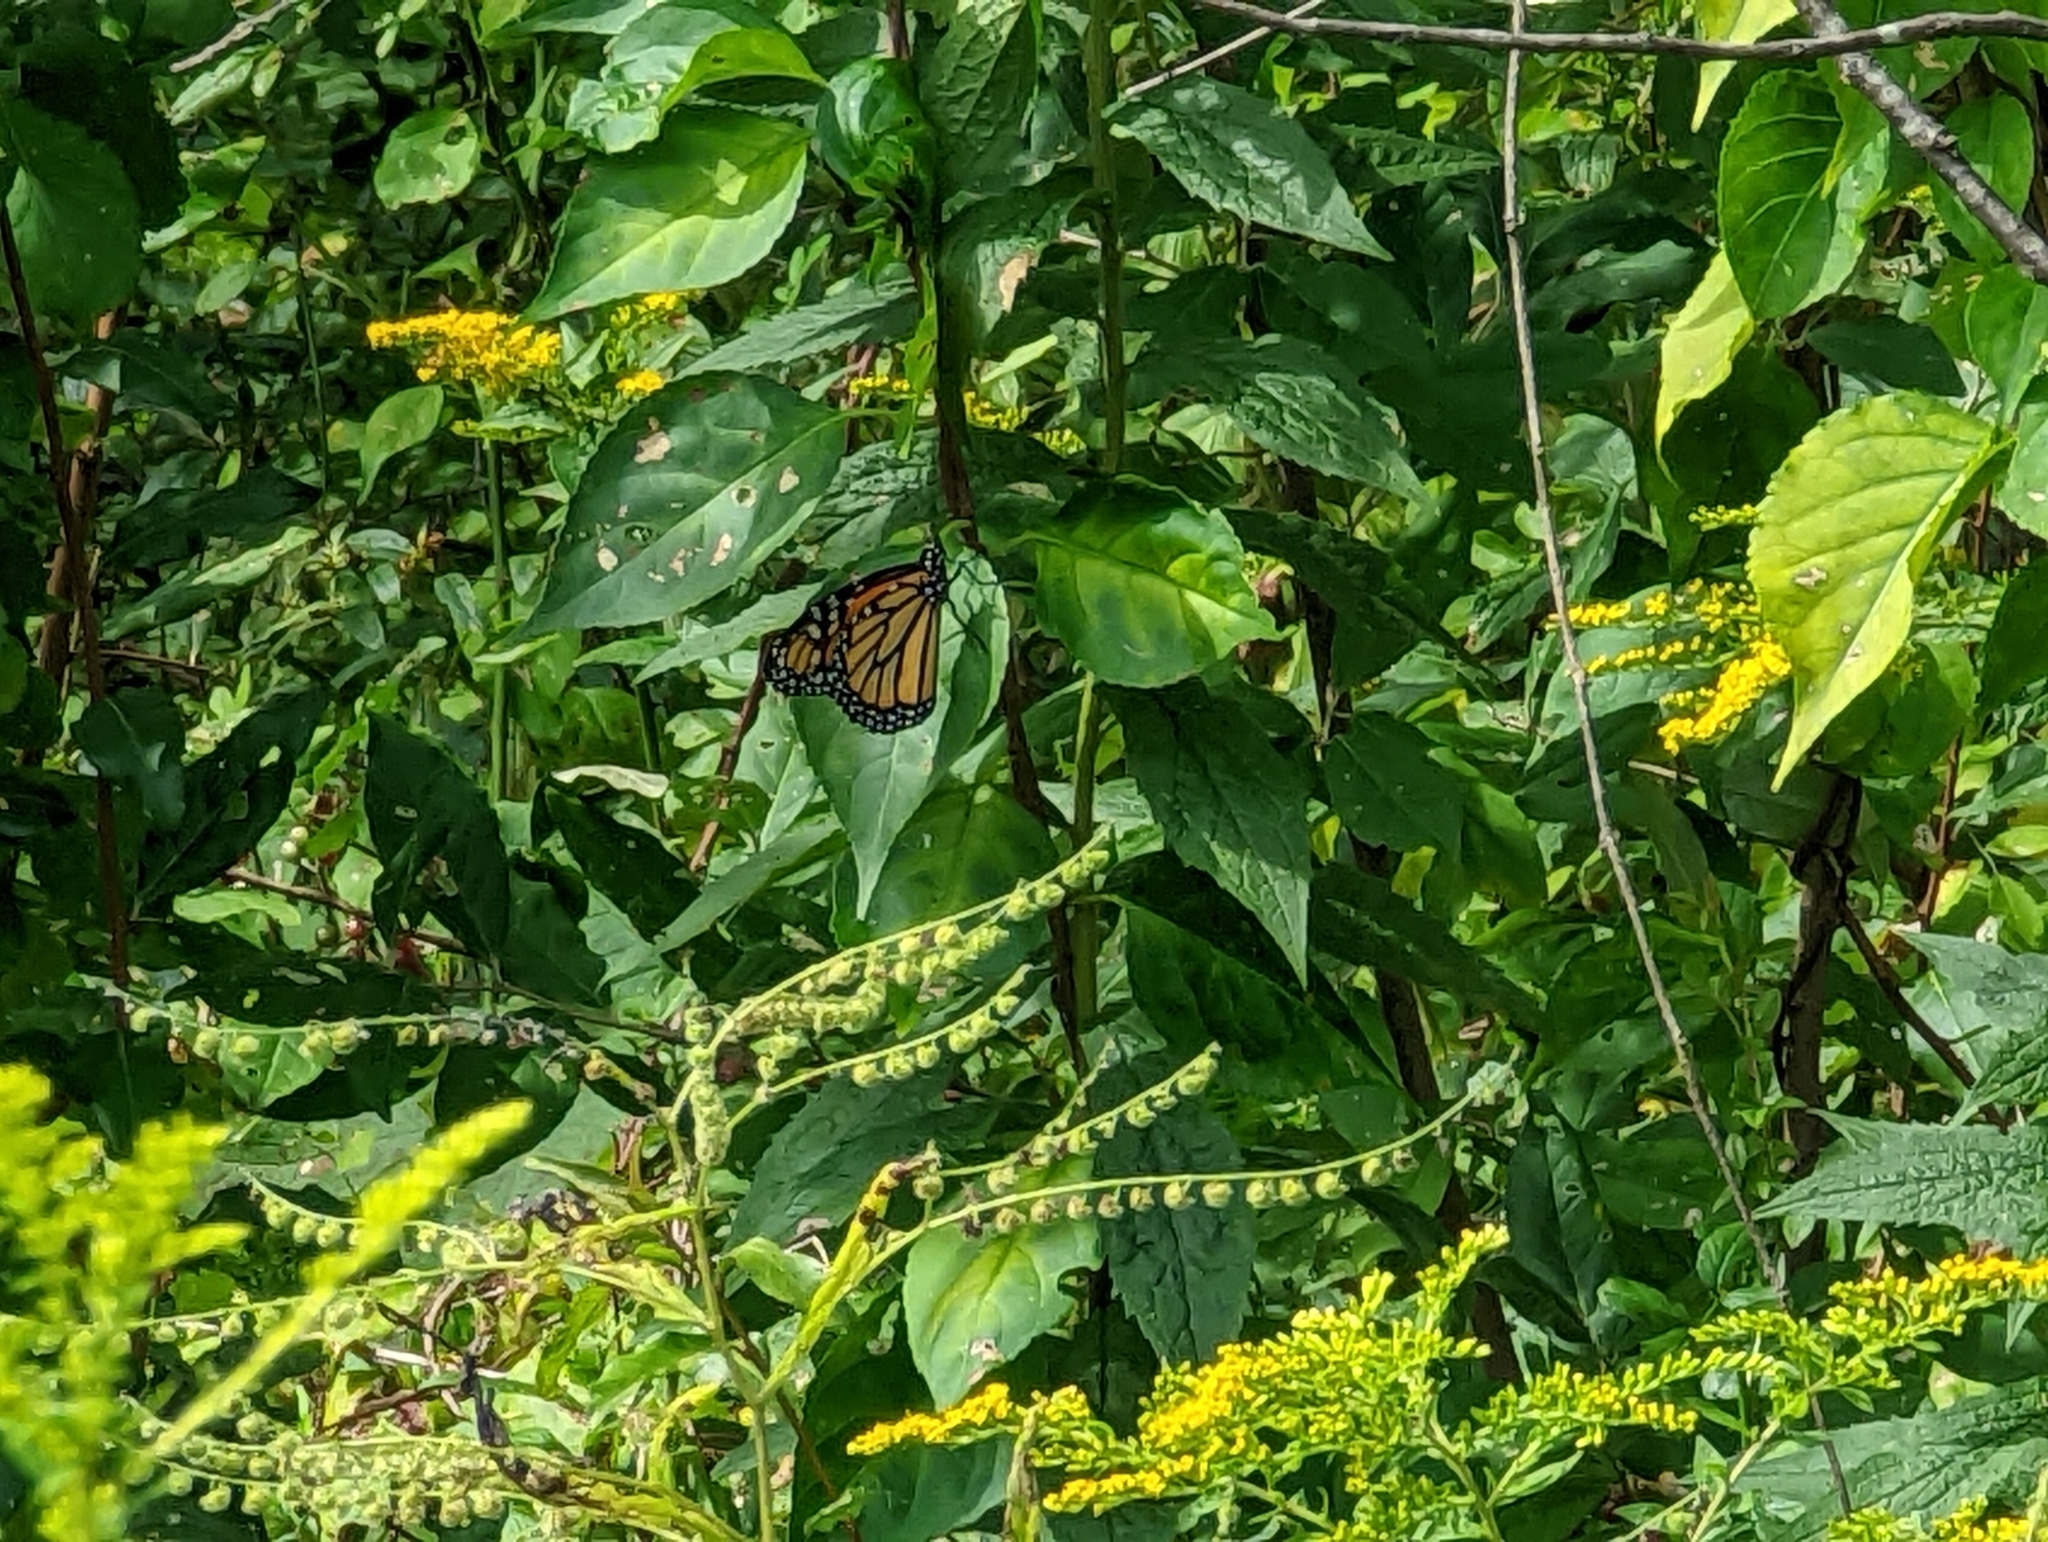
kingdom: Animalia
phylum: Arthropoda
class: Insecta
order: Lepidoptera
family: Nymphalidae
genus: Danaus
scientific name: Danaus plexippus
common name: Monarch
